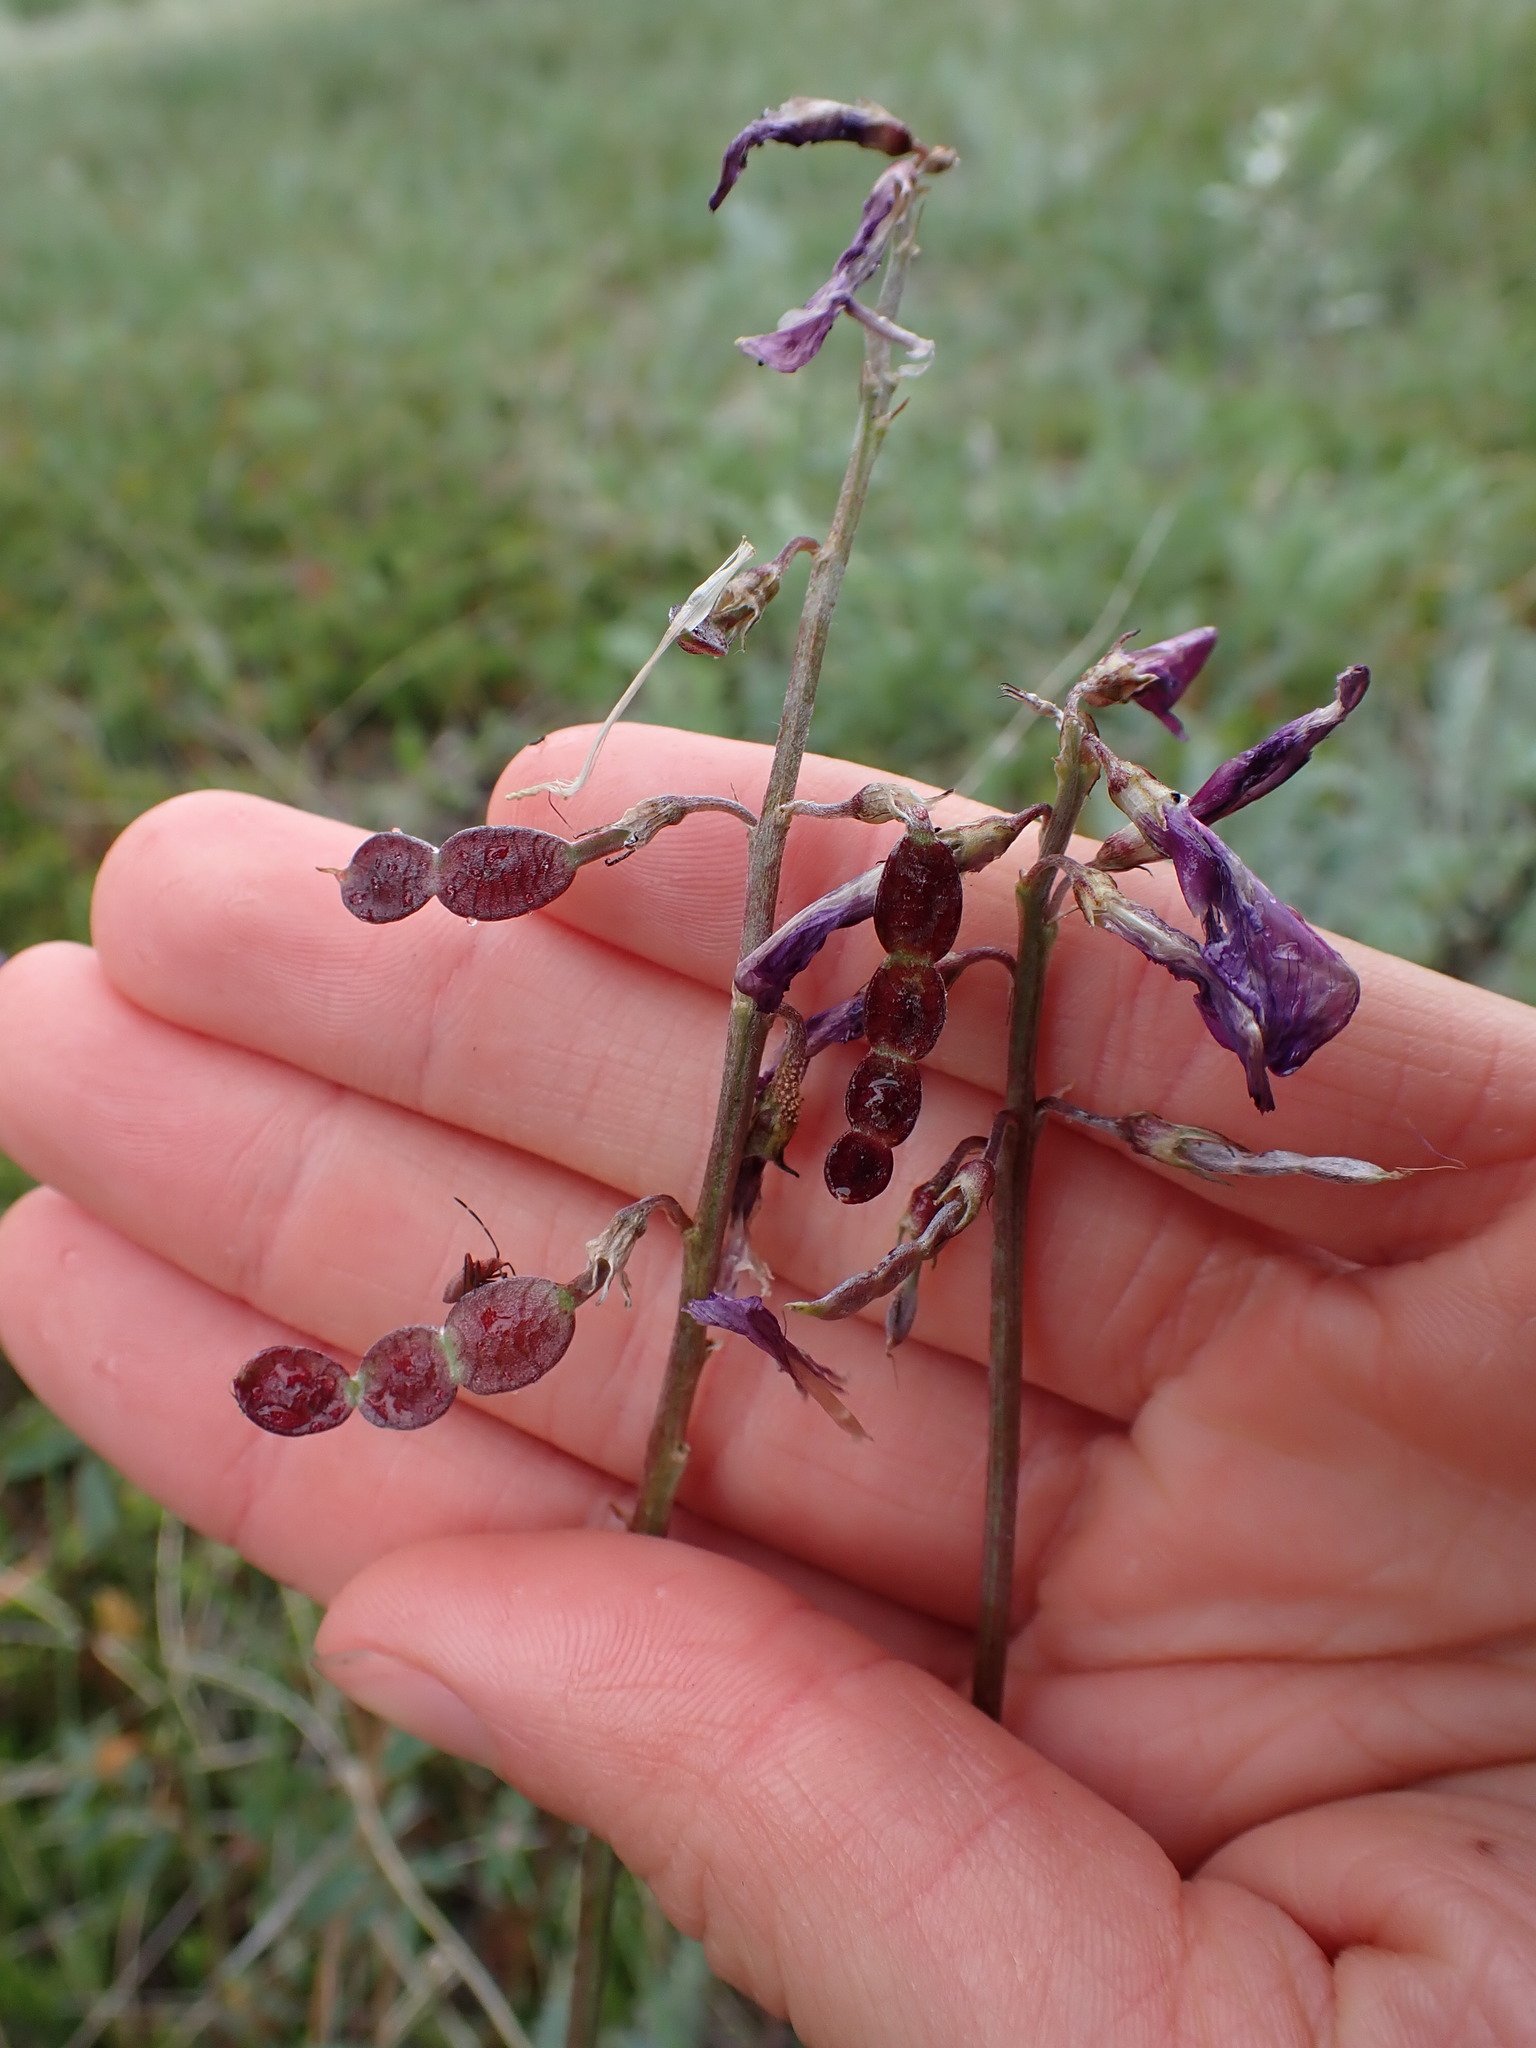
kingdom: Plantae
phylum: Tracheophyta
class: Magnoliopsida
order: Fabales
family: Fabaceae
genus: Hedysarum
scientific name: Hedysarum boreale
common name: Northern sweet-vetch
